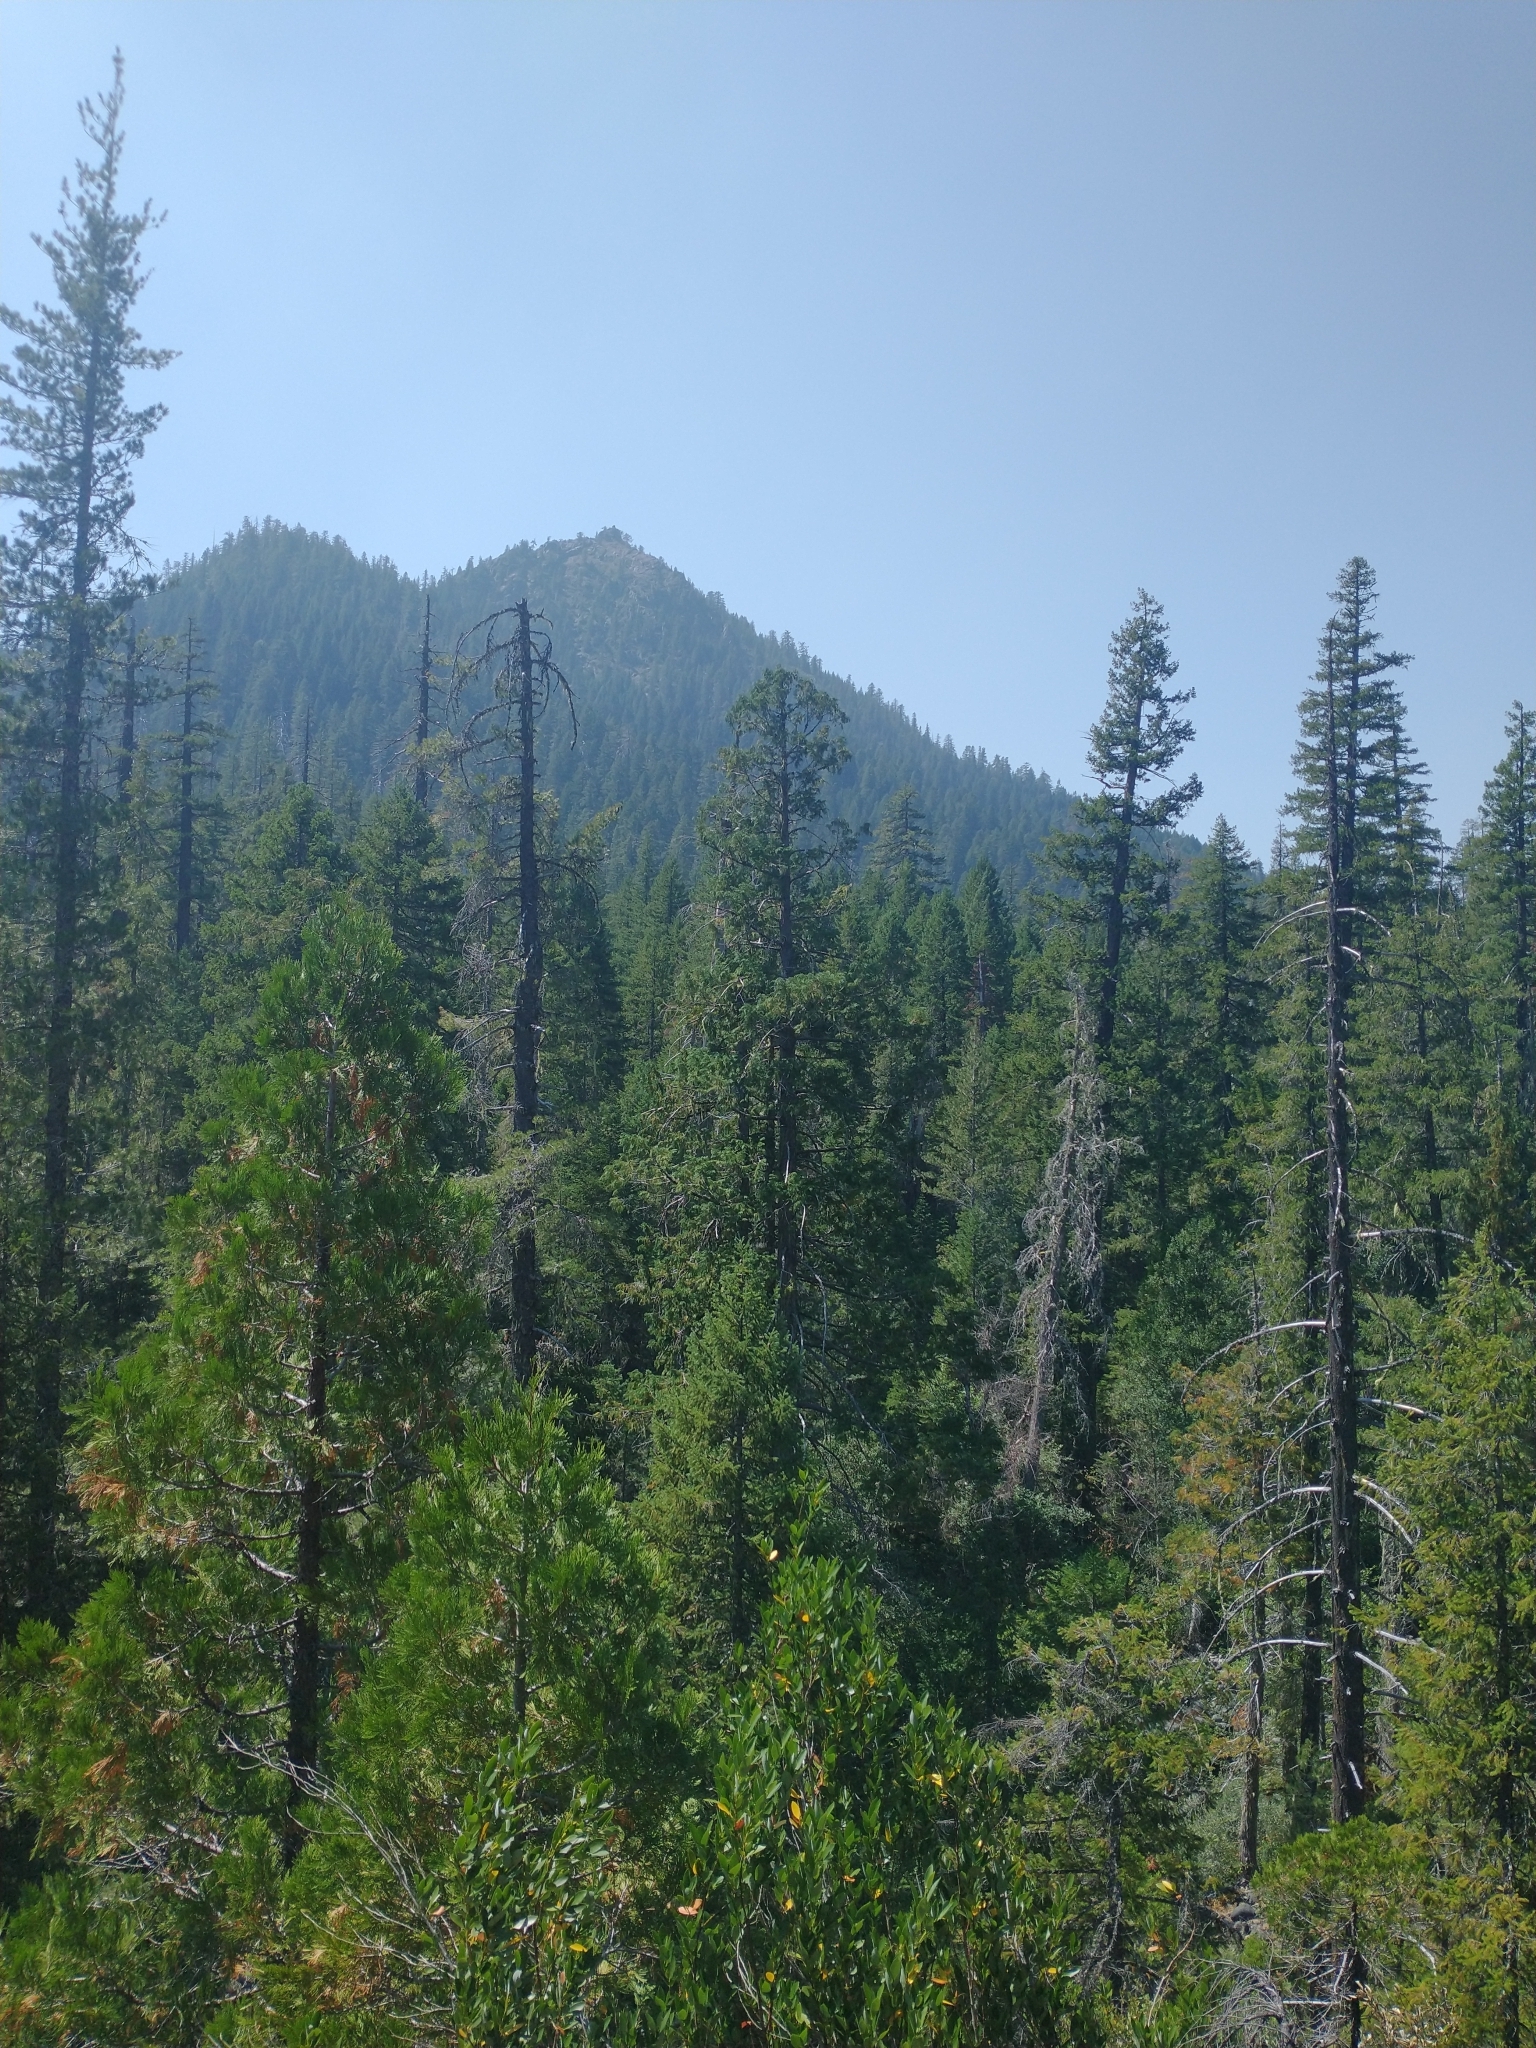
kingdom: Plantae
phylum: Tracheophyta
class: Pinopsida
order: Pinales
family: Cupressaceae
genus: Calocedrus
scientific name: Calocedrus decurrens
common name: Californian incense-cedar
